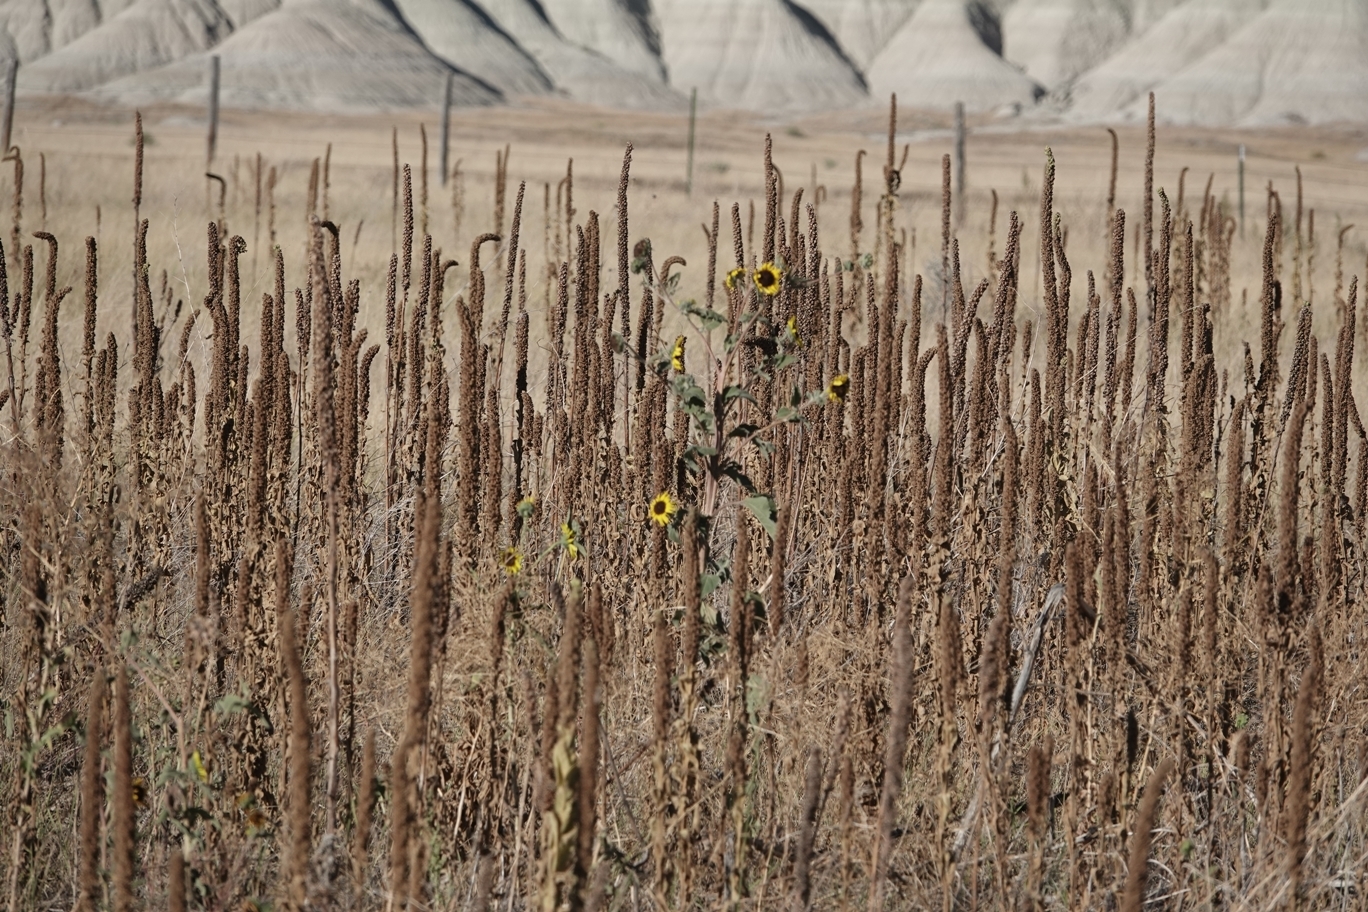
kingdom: Plantae
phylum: Tracheophyta
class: Magnoliopsida
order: Lamiales
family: Scrophulariaceae
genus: Verbascum
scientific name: Verbascum thapsus
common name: Common mullein
